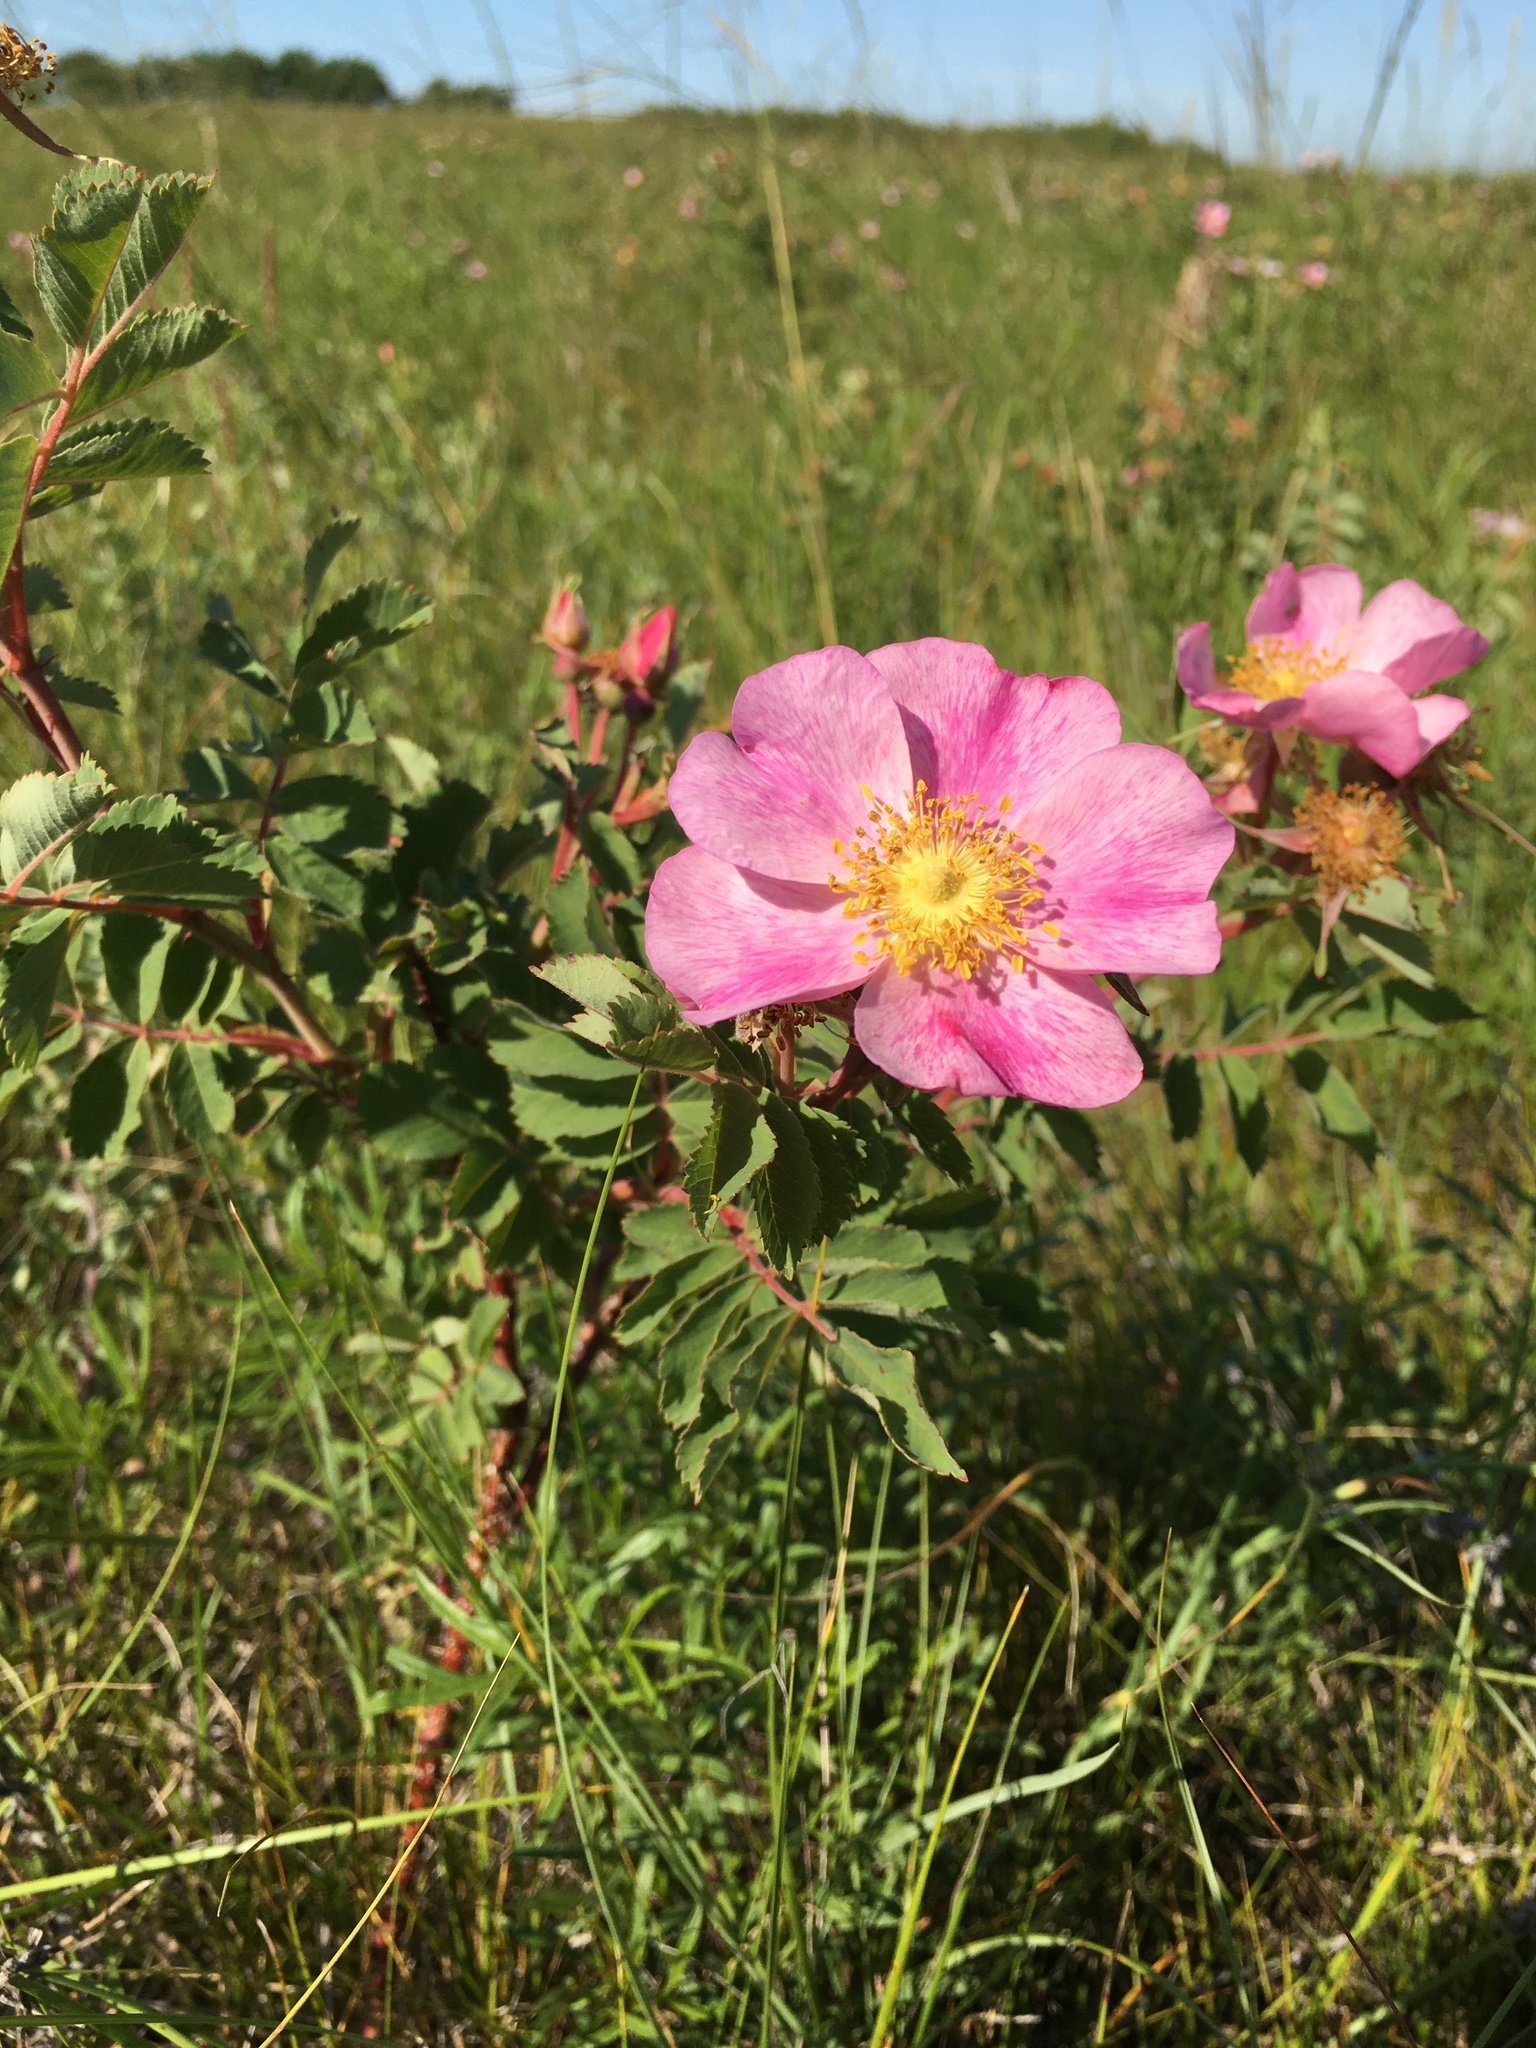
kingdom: Plantae
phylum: Tracheophyta
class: Magnoliopsida
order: Rosales
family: Rosaceae
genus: Rosa
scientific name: Rosa woodsii
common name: Woods's rose
